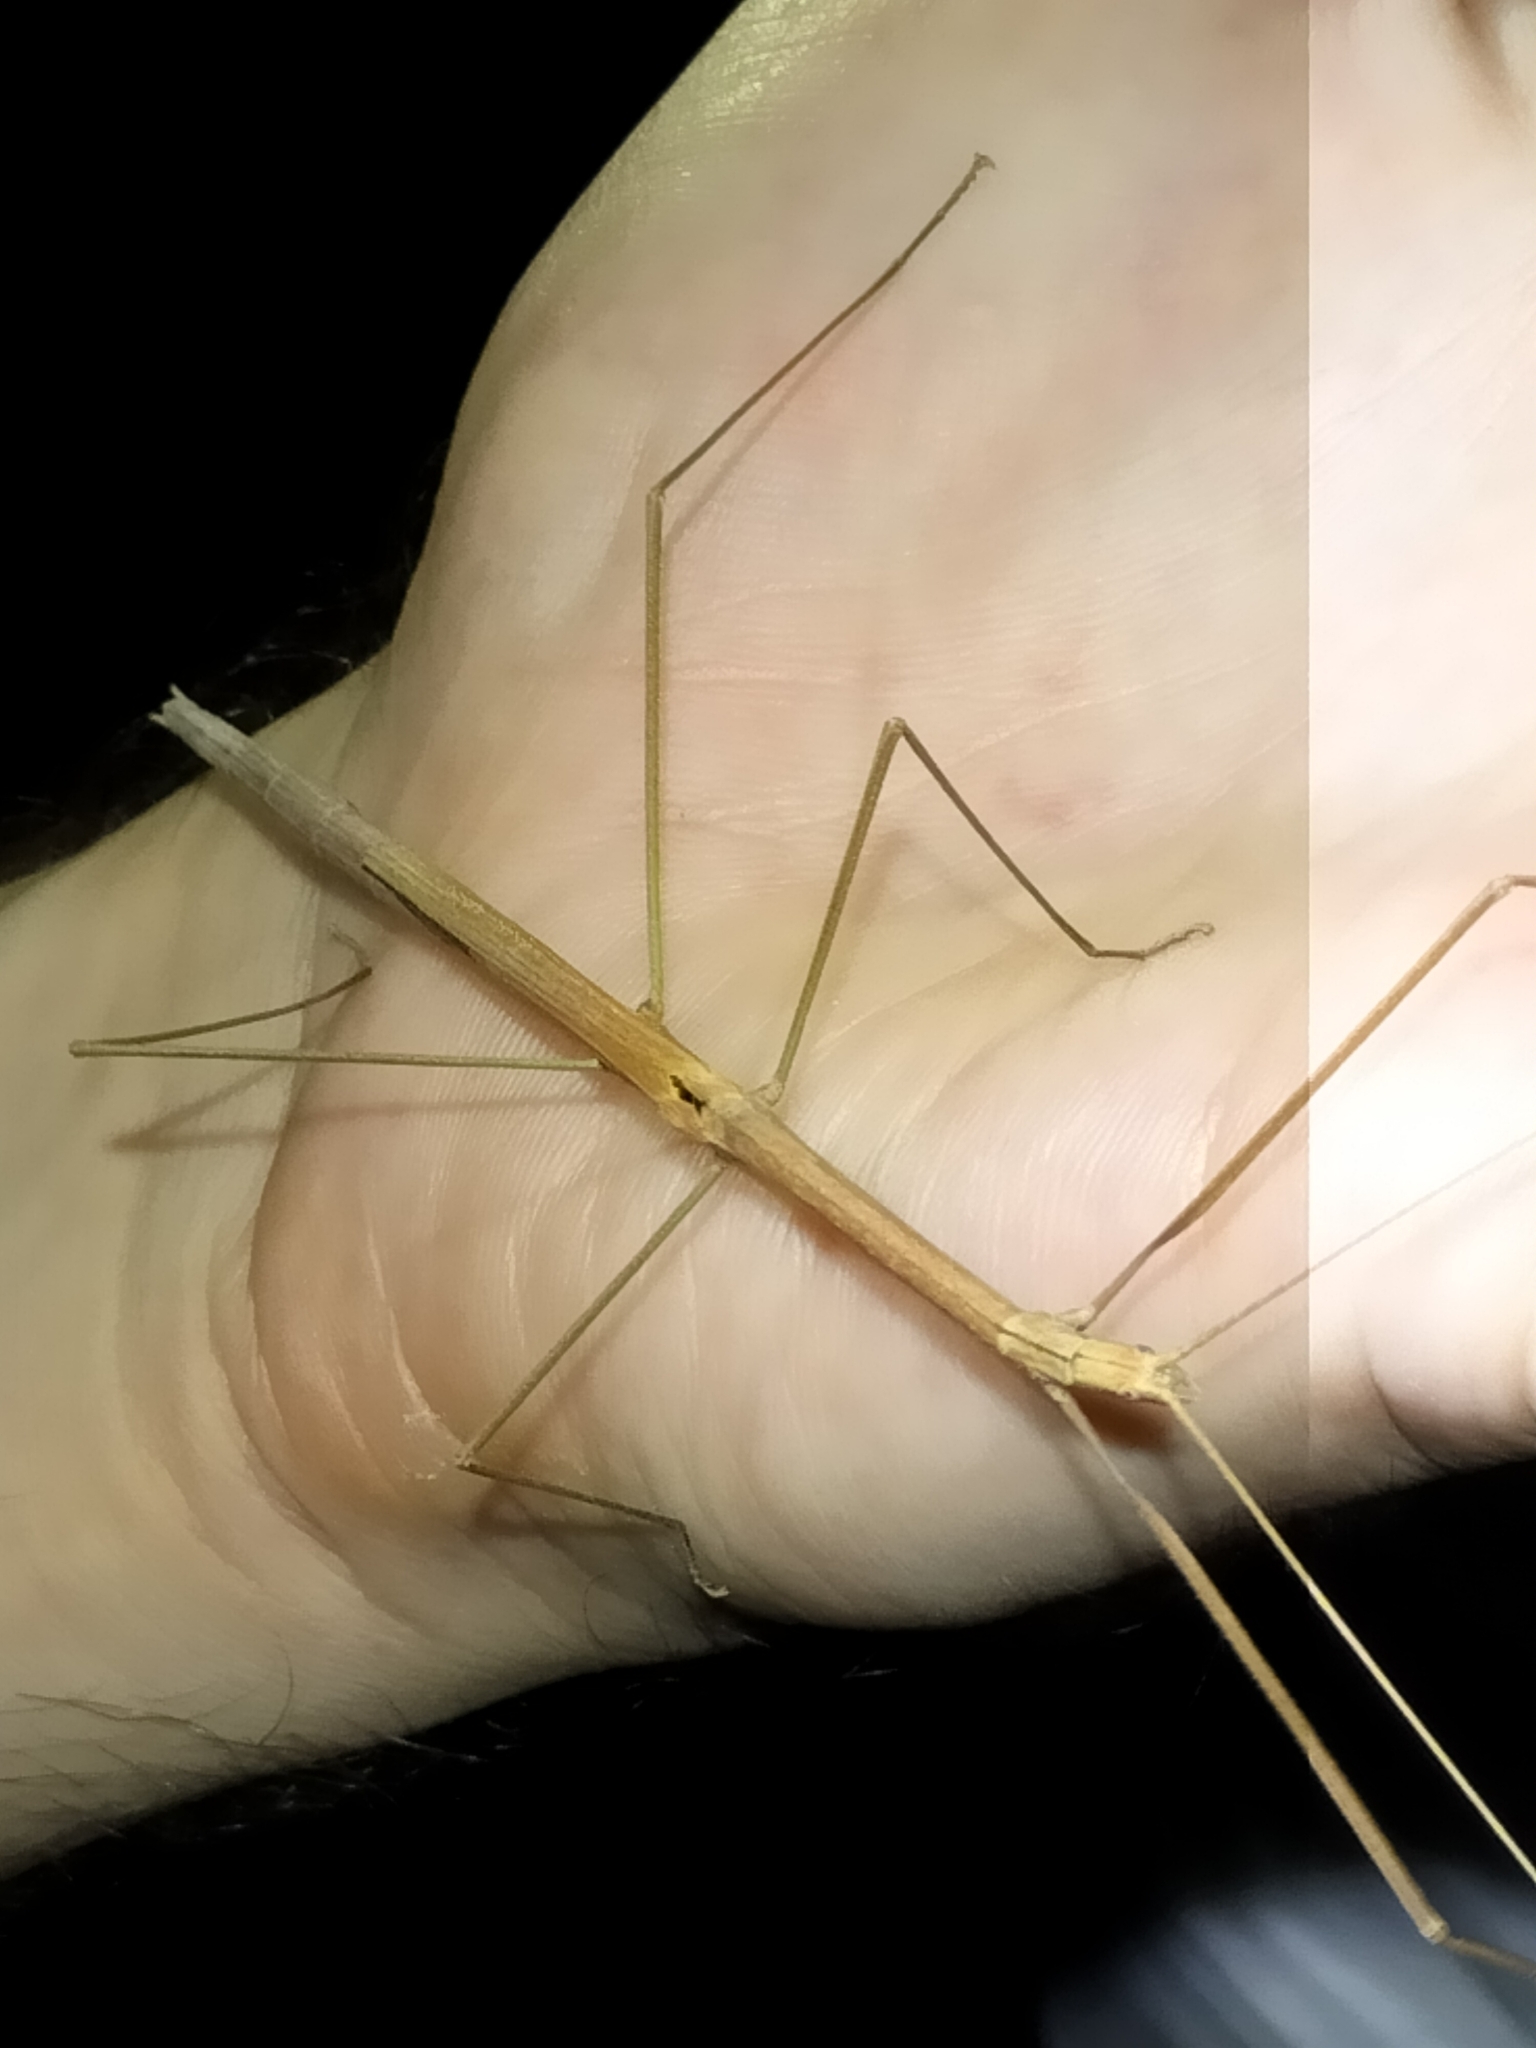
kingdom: Animalia
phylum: Arthropoda
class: Insecta
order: Phasmida
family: Lonchodidae
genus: Sipyloidea
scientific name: Sipyloidea gracilipes
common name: Graceful-winged stick-insect
